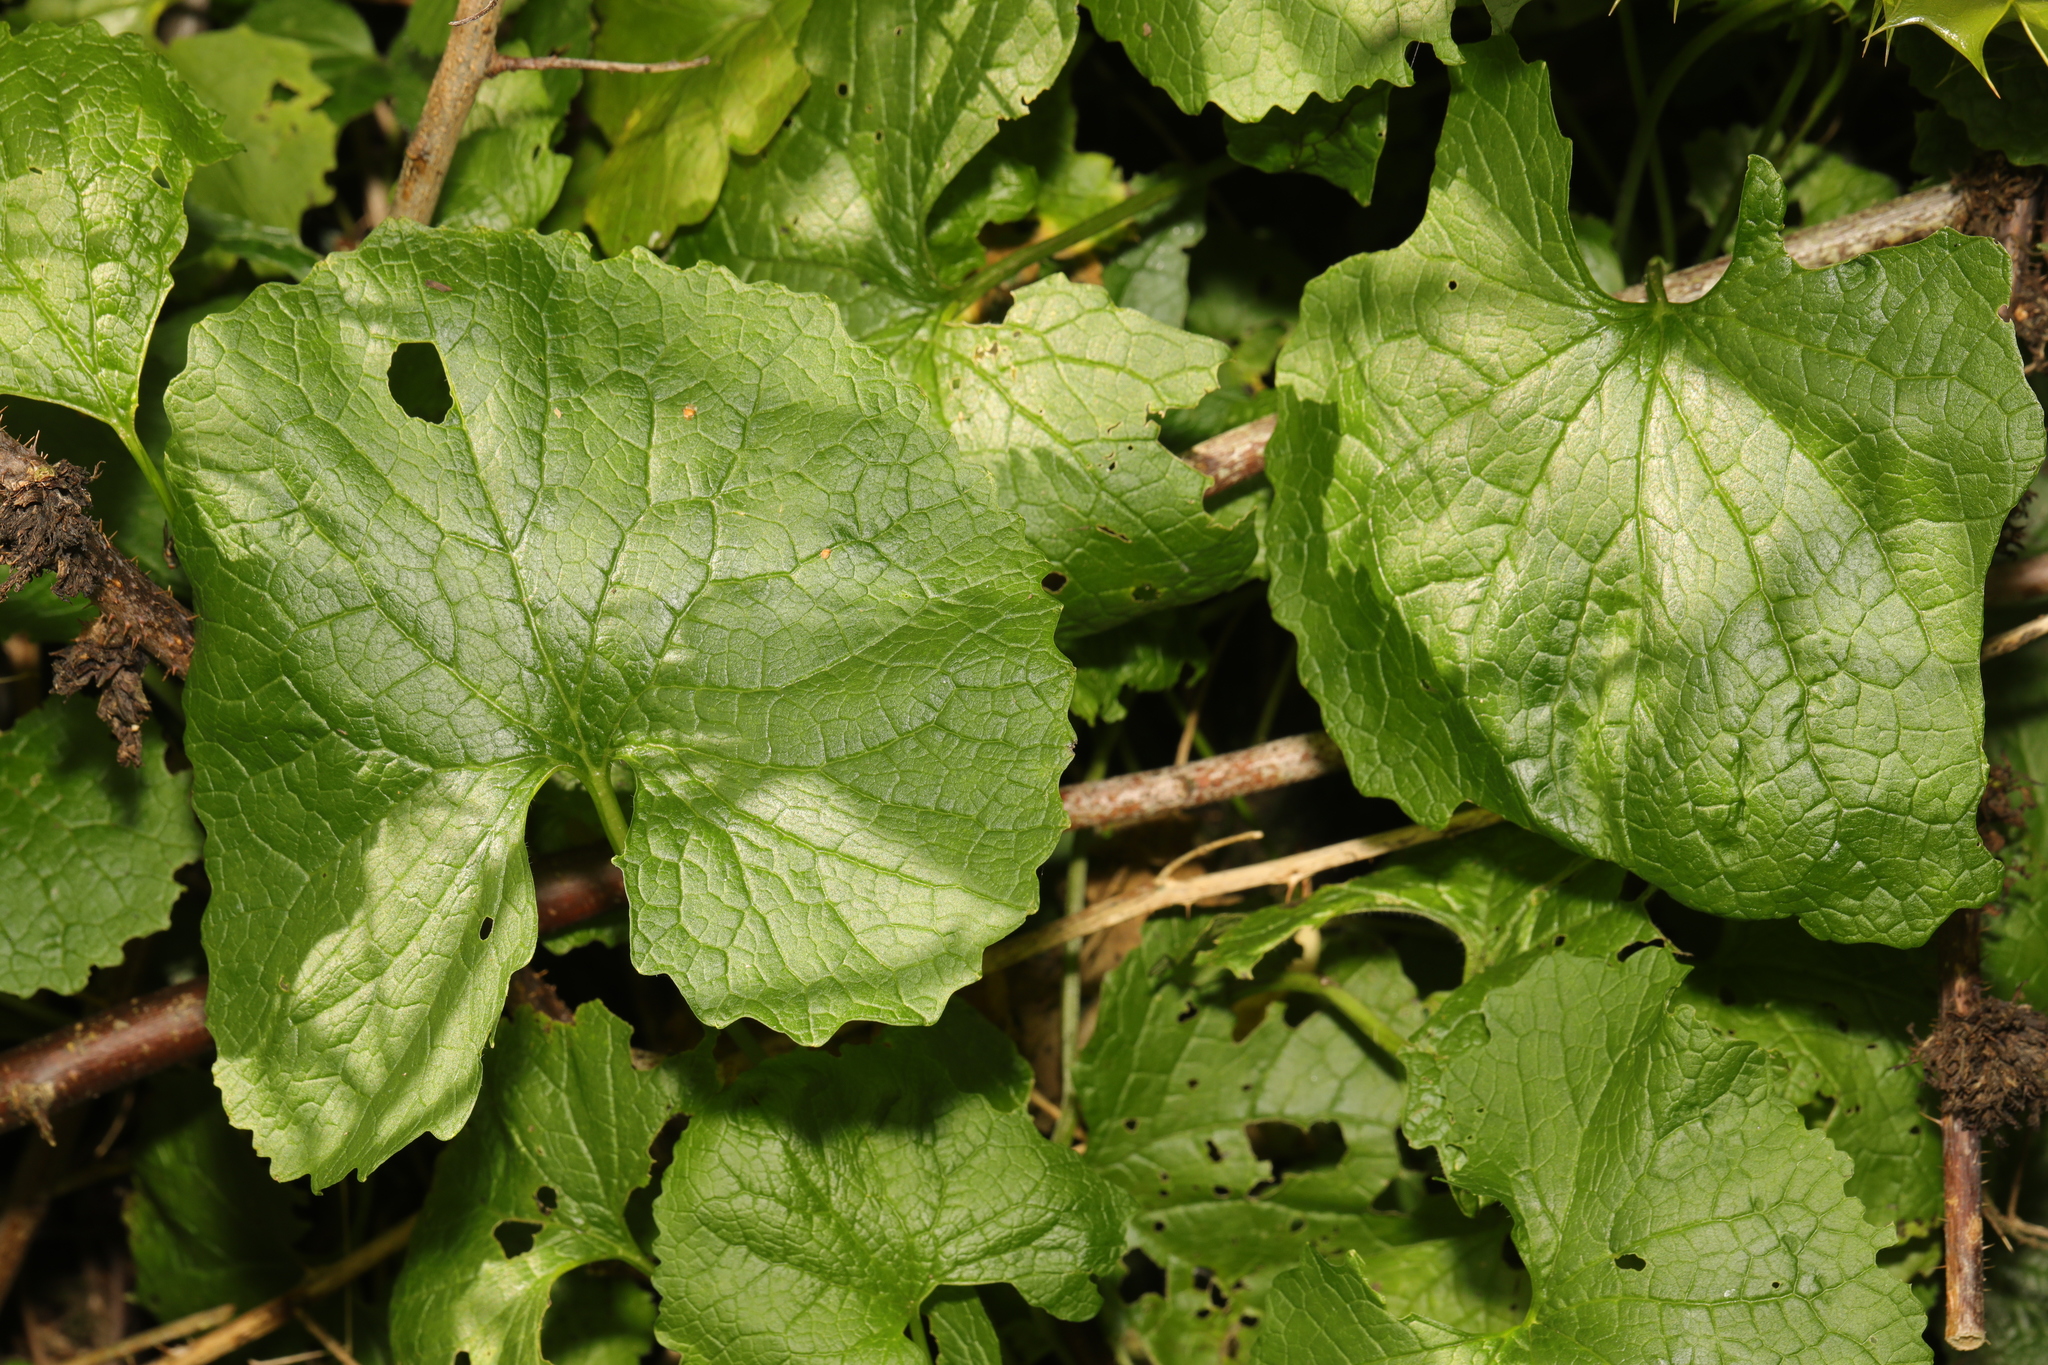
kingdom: Plantae
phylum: Tracheophyta
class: Magnoliopsida
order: Brassicales
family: Brassicaceae
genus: Alliaria
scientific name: Alliaria petiolata
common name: Garlic mustard
